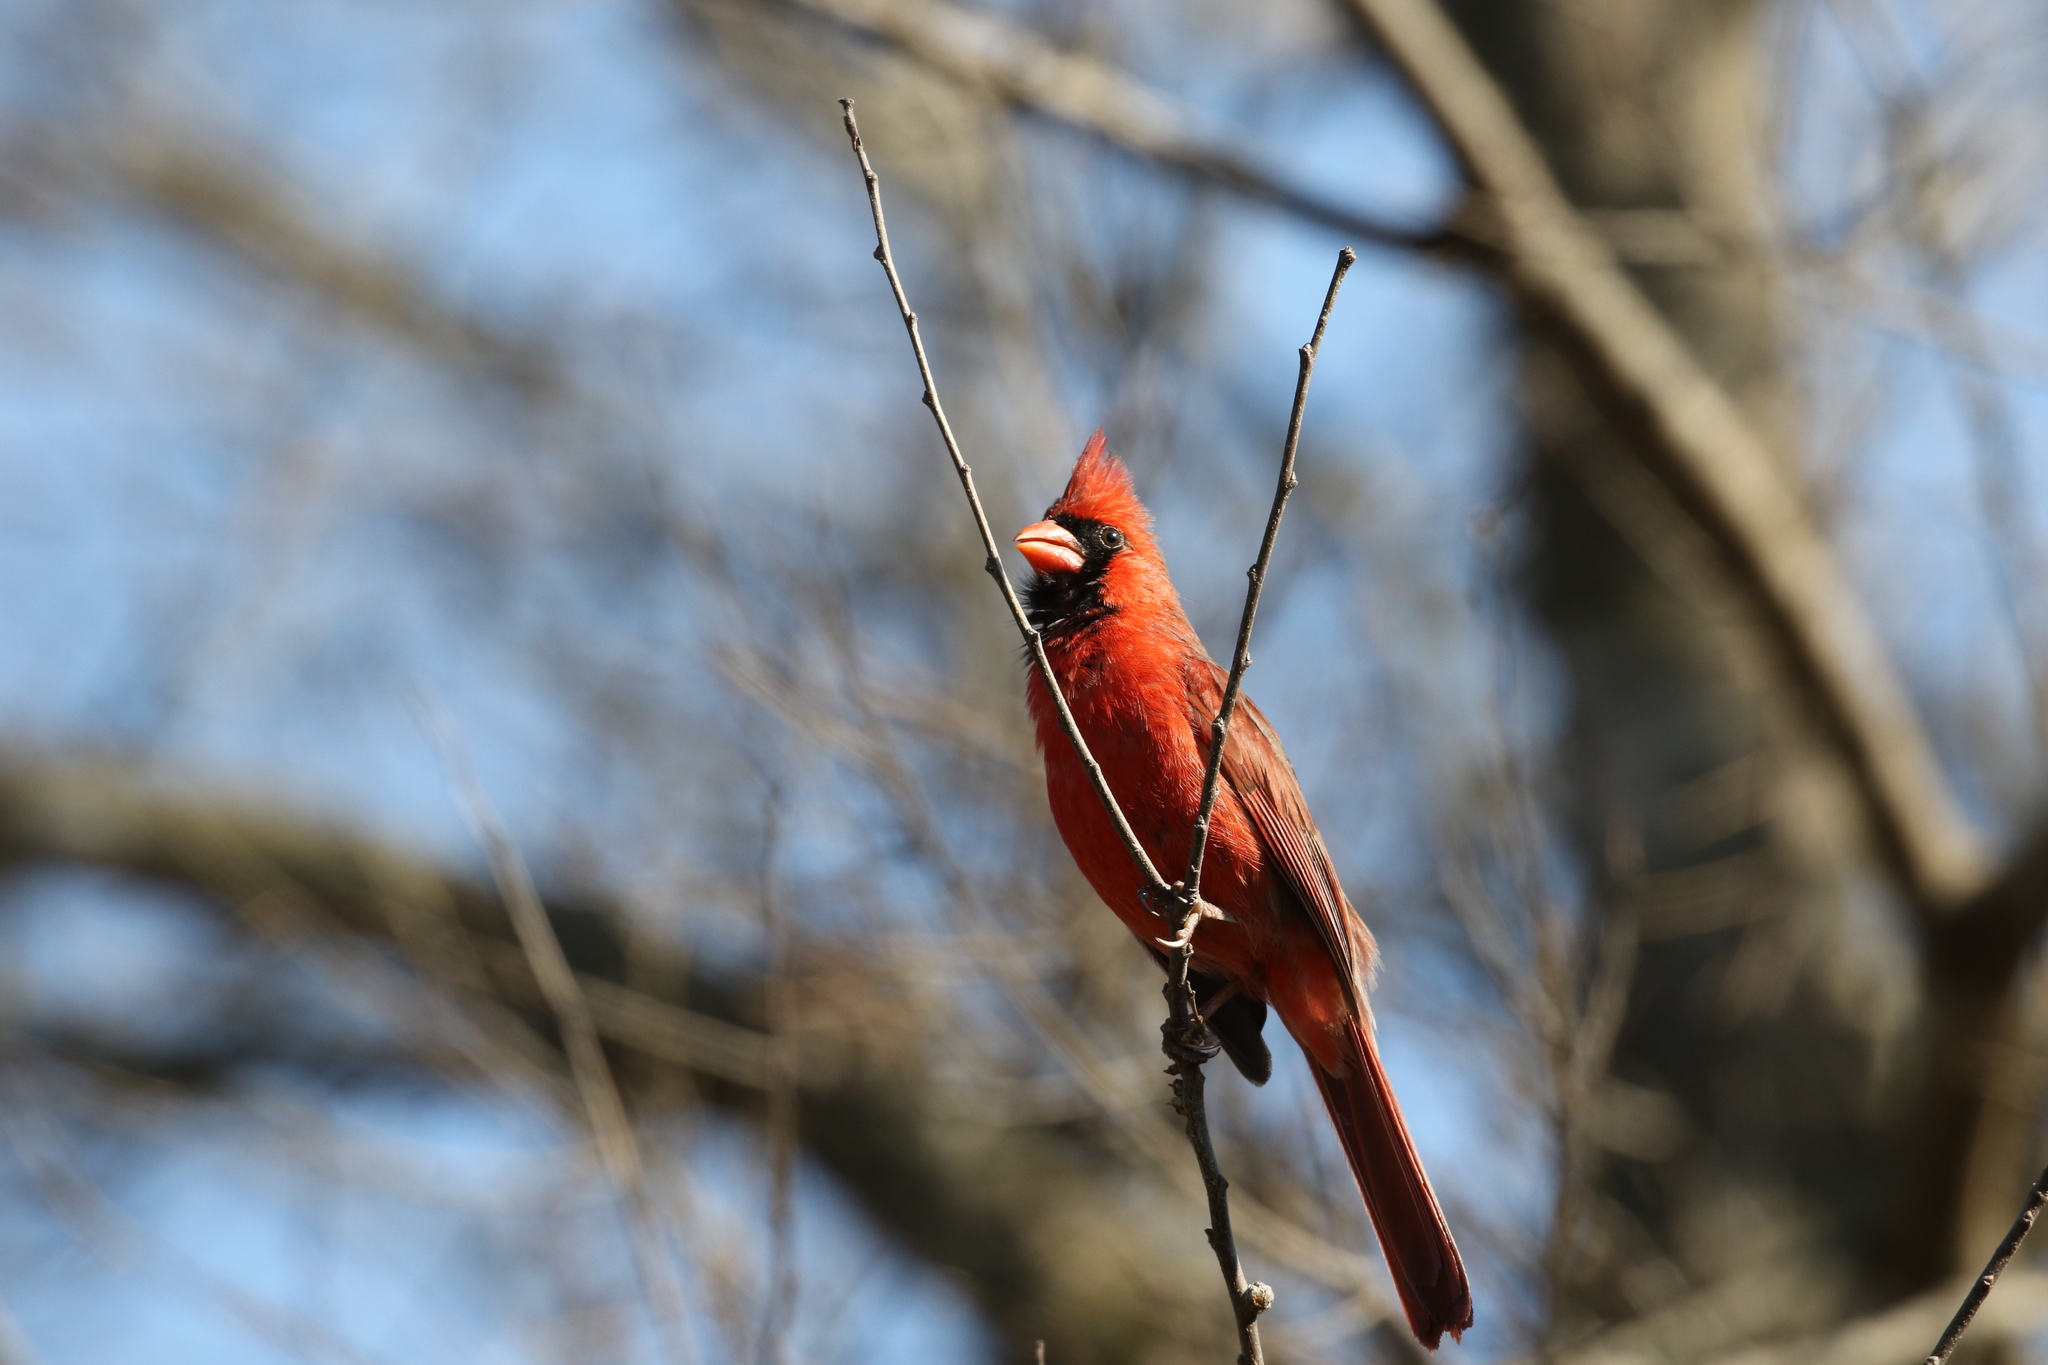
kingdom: Animalia
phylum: Chordata
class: Aves
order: Passeriformes
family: Cardinalidae
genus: Cardinalis
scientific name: Cardinalis cardinalis
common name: Northern cardinal
